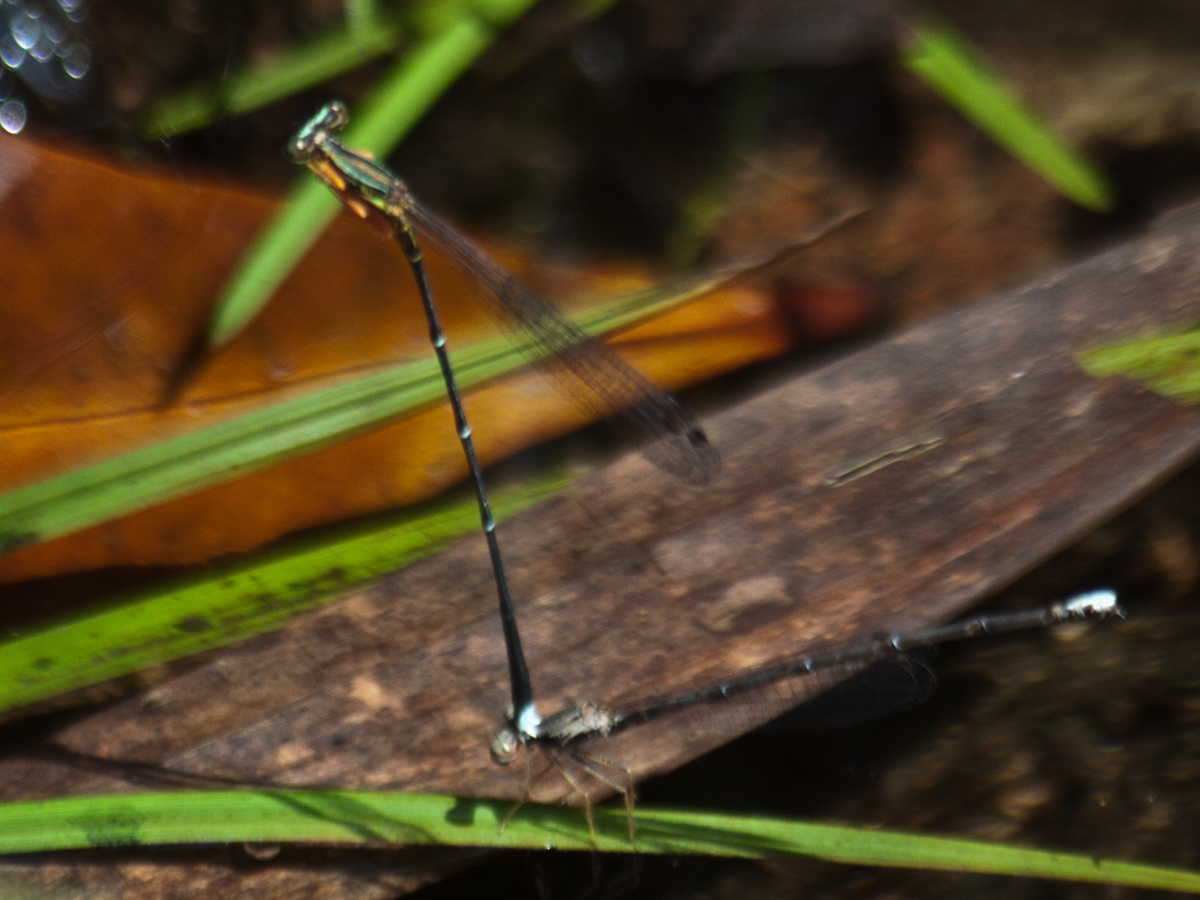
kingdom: Animalia
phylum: Arthropoda
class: Insecta
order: Odonata
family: Platycnemididae
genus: Copera
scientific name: Copera vittata
